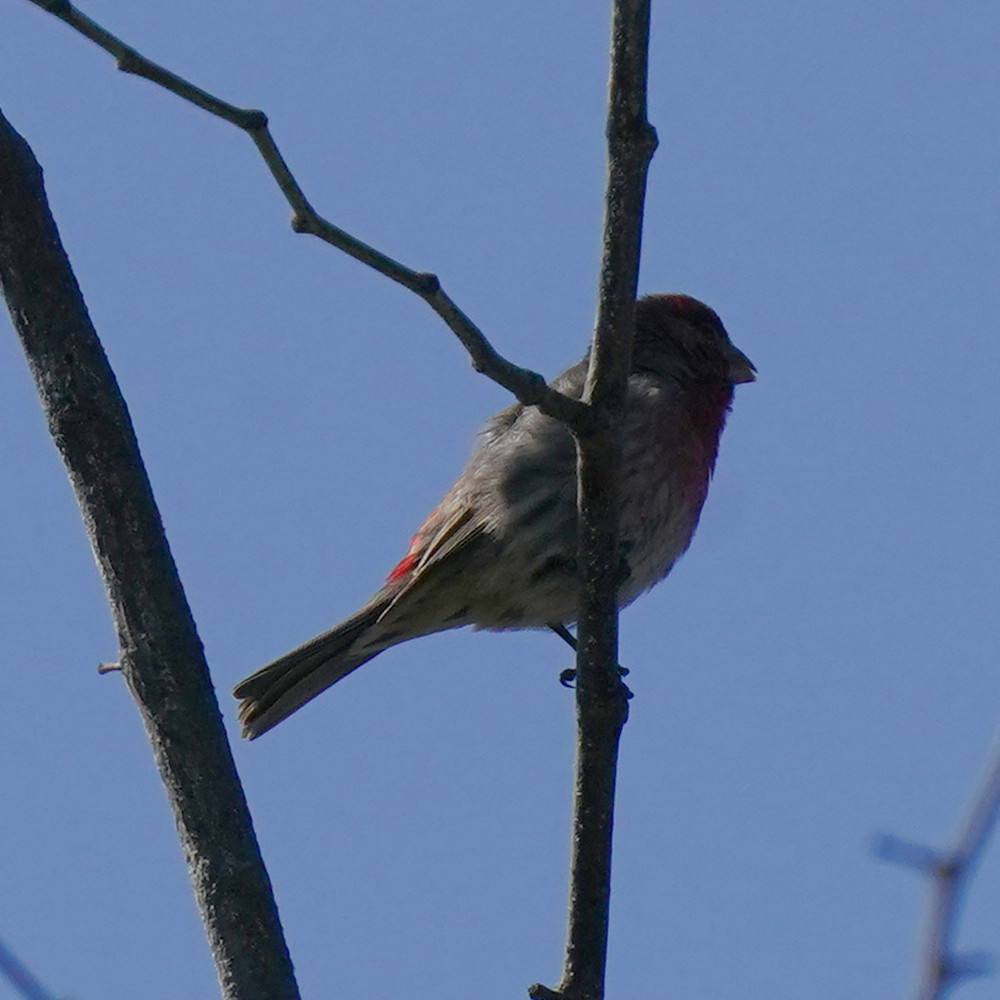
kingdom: Animalia
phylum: Chordata
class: Aves
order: Passeriformes
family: Fringillidae
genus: Haemorhous
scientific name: Haemorhous mexicanus
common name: House finch
